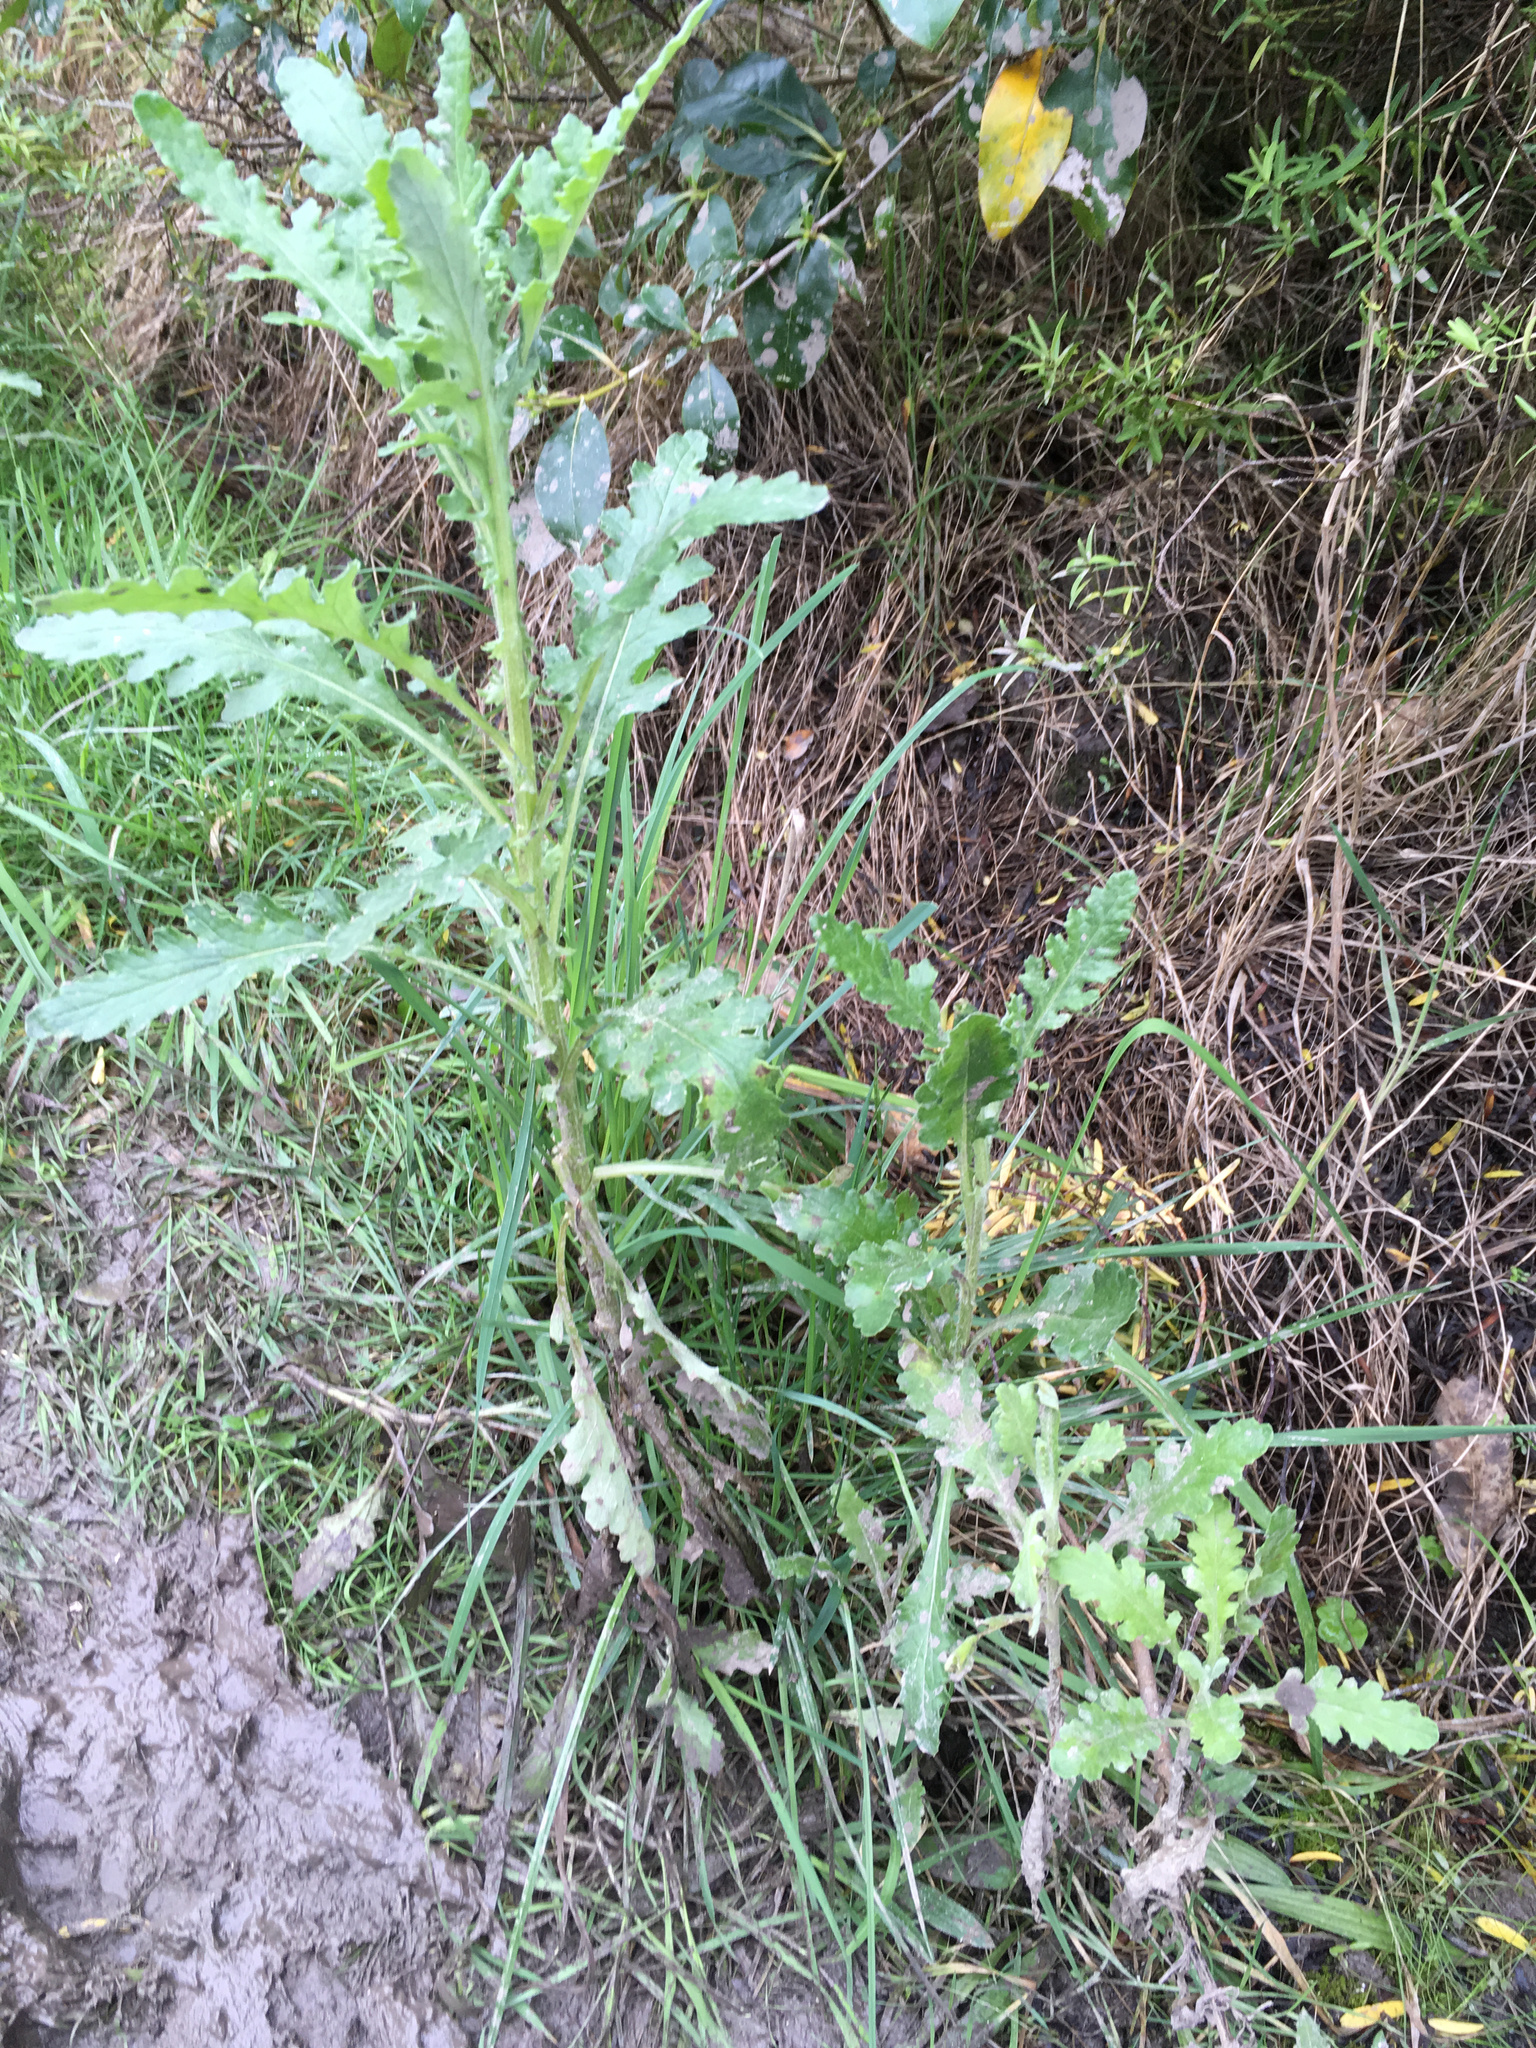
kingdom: Plantae
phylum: Tracheophyta
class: Magnoliopsida
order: Asterales
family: Asteraceae
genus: Senecio
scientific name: Senecio glomeratus
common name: Cutleaf burnweed
